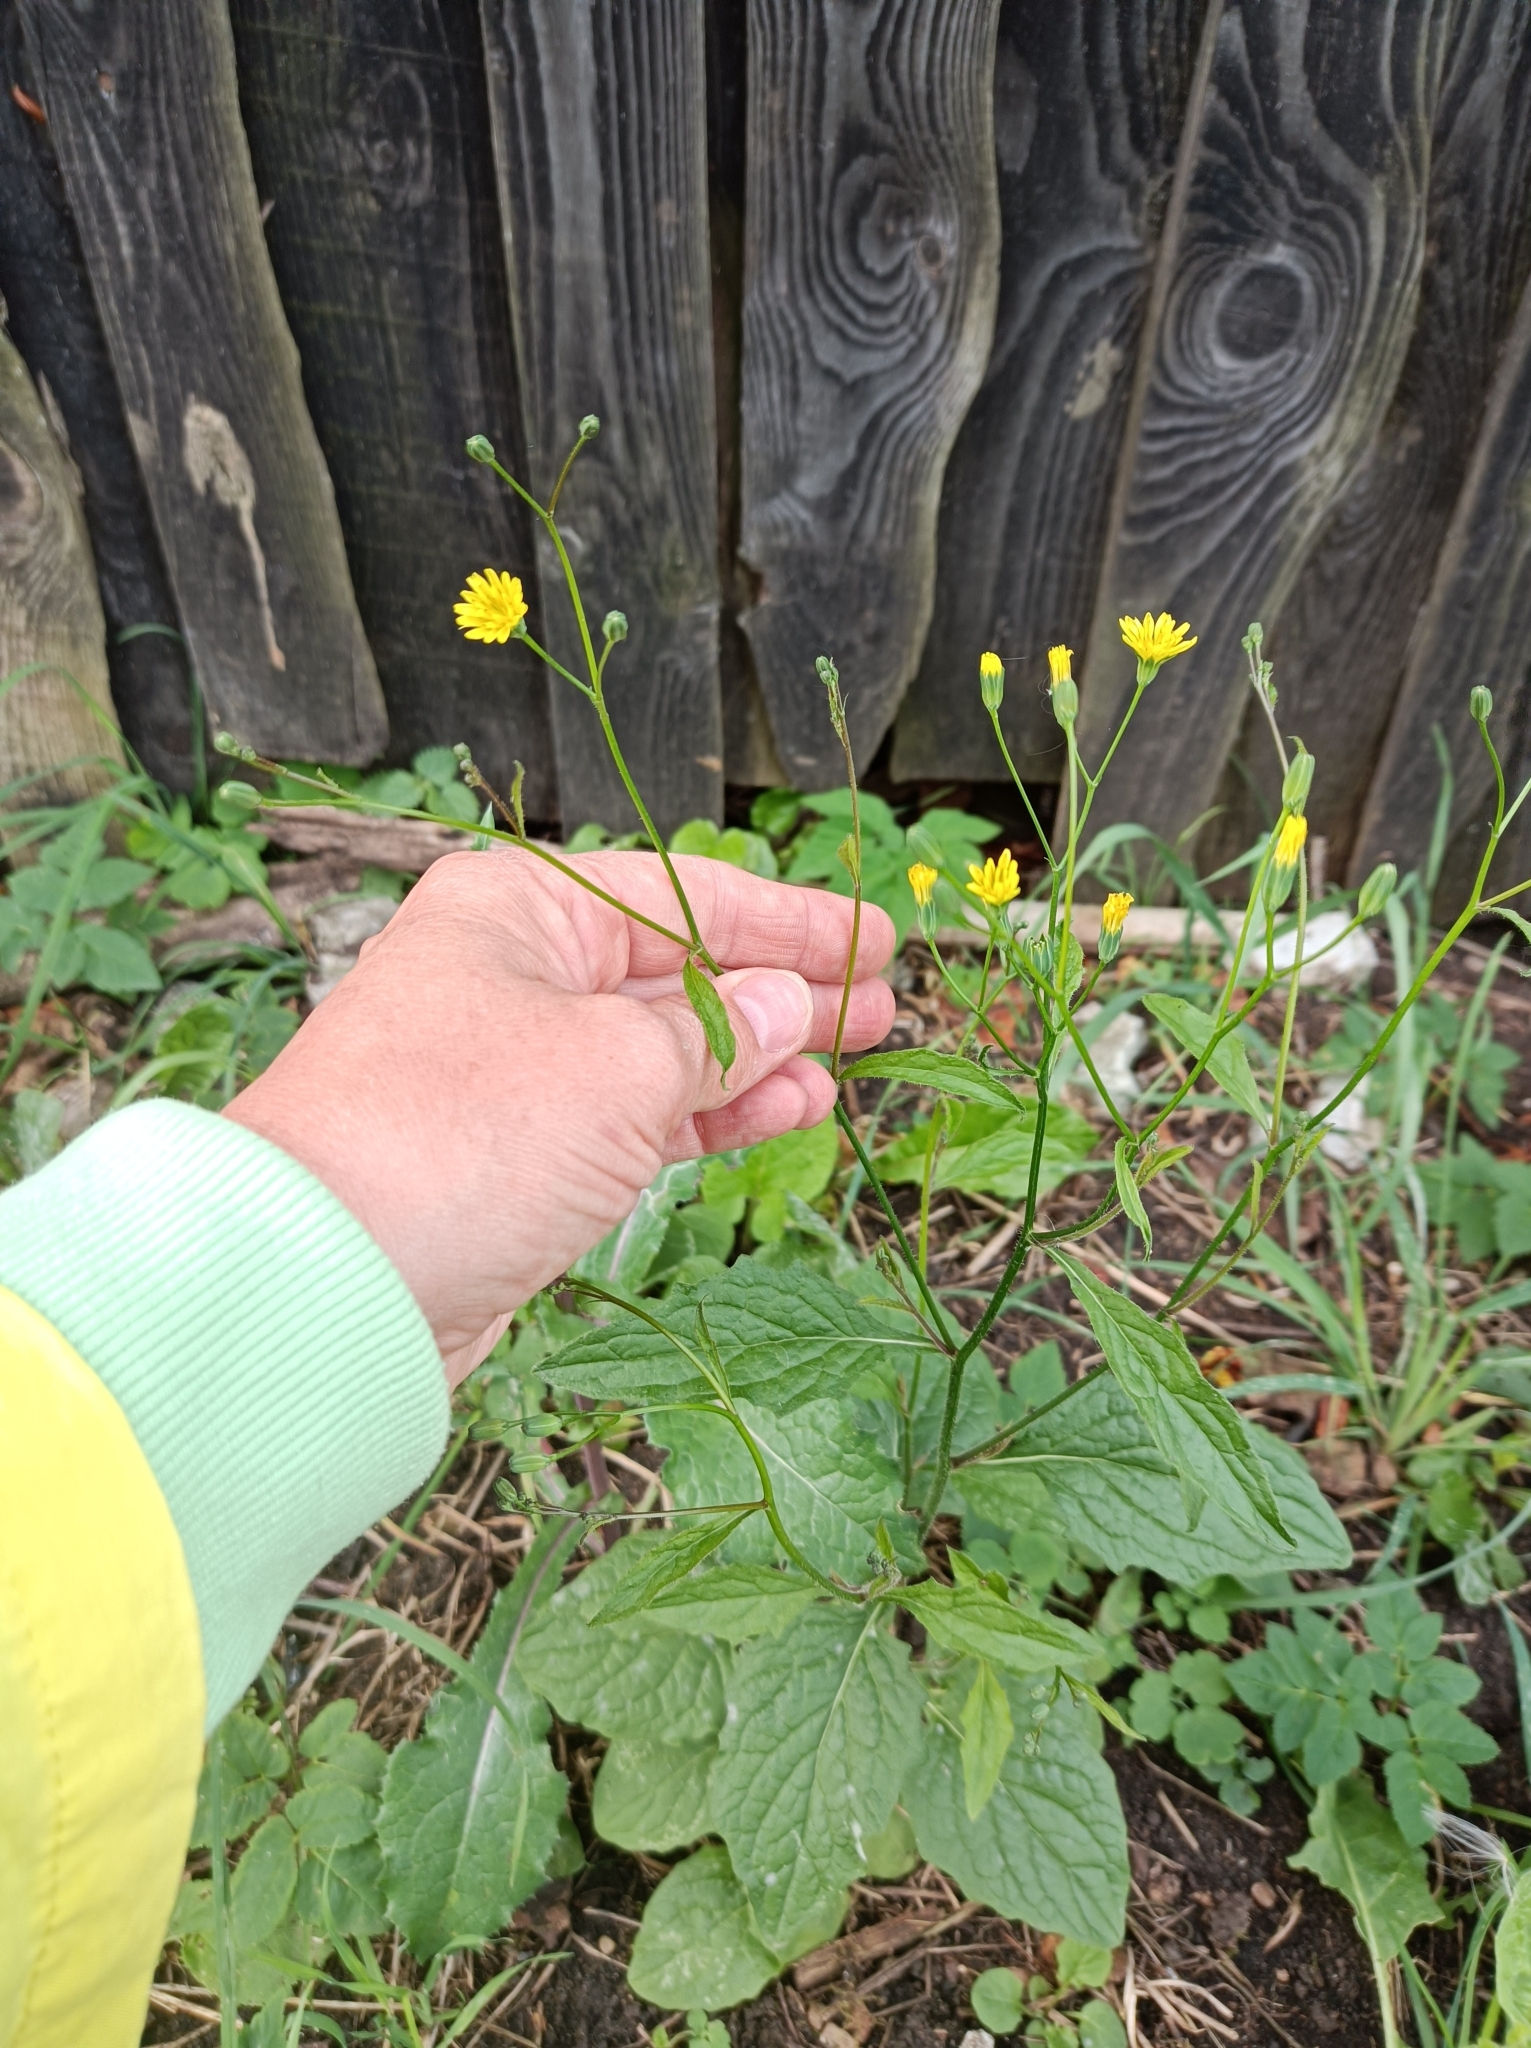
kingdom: Plantae
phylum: Tracheophyta
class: Magnoliopsida
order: Asterales
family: Asteraceae
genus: Lapsana
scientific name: Lapsana communis
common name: Nipplewort
